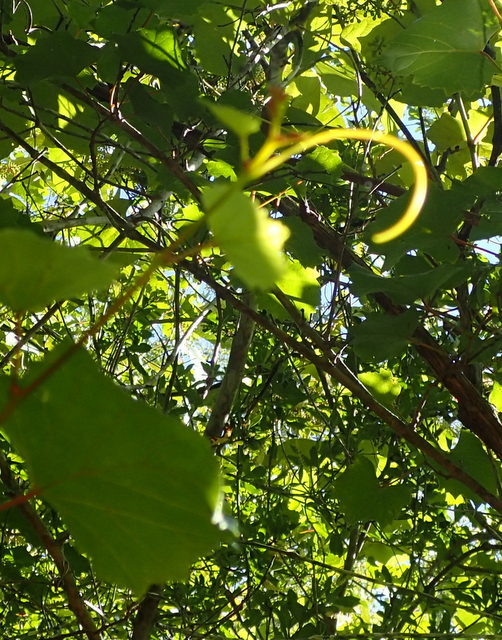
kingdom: Plantae
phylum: Tracheophyta
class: Magnoliopsida
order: Vitales
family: Vitaceae
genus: Vitis
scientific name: Vitis rotundifolia
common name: Muscadine grape
